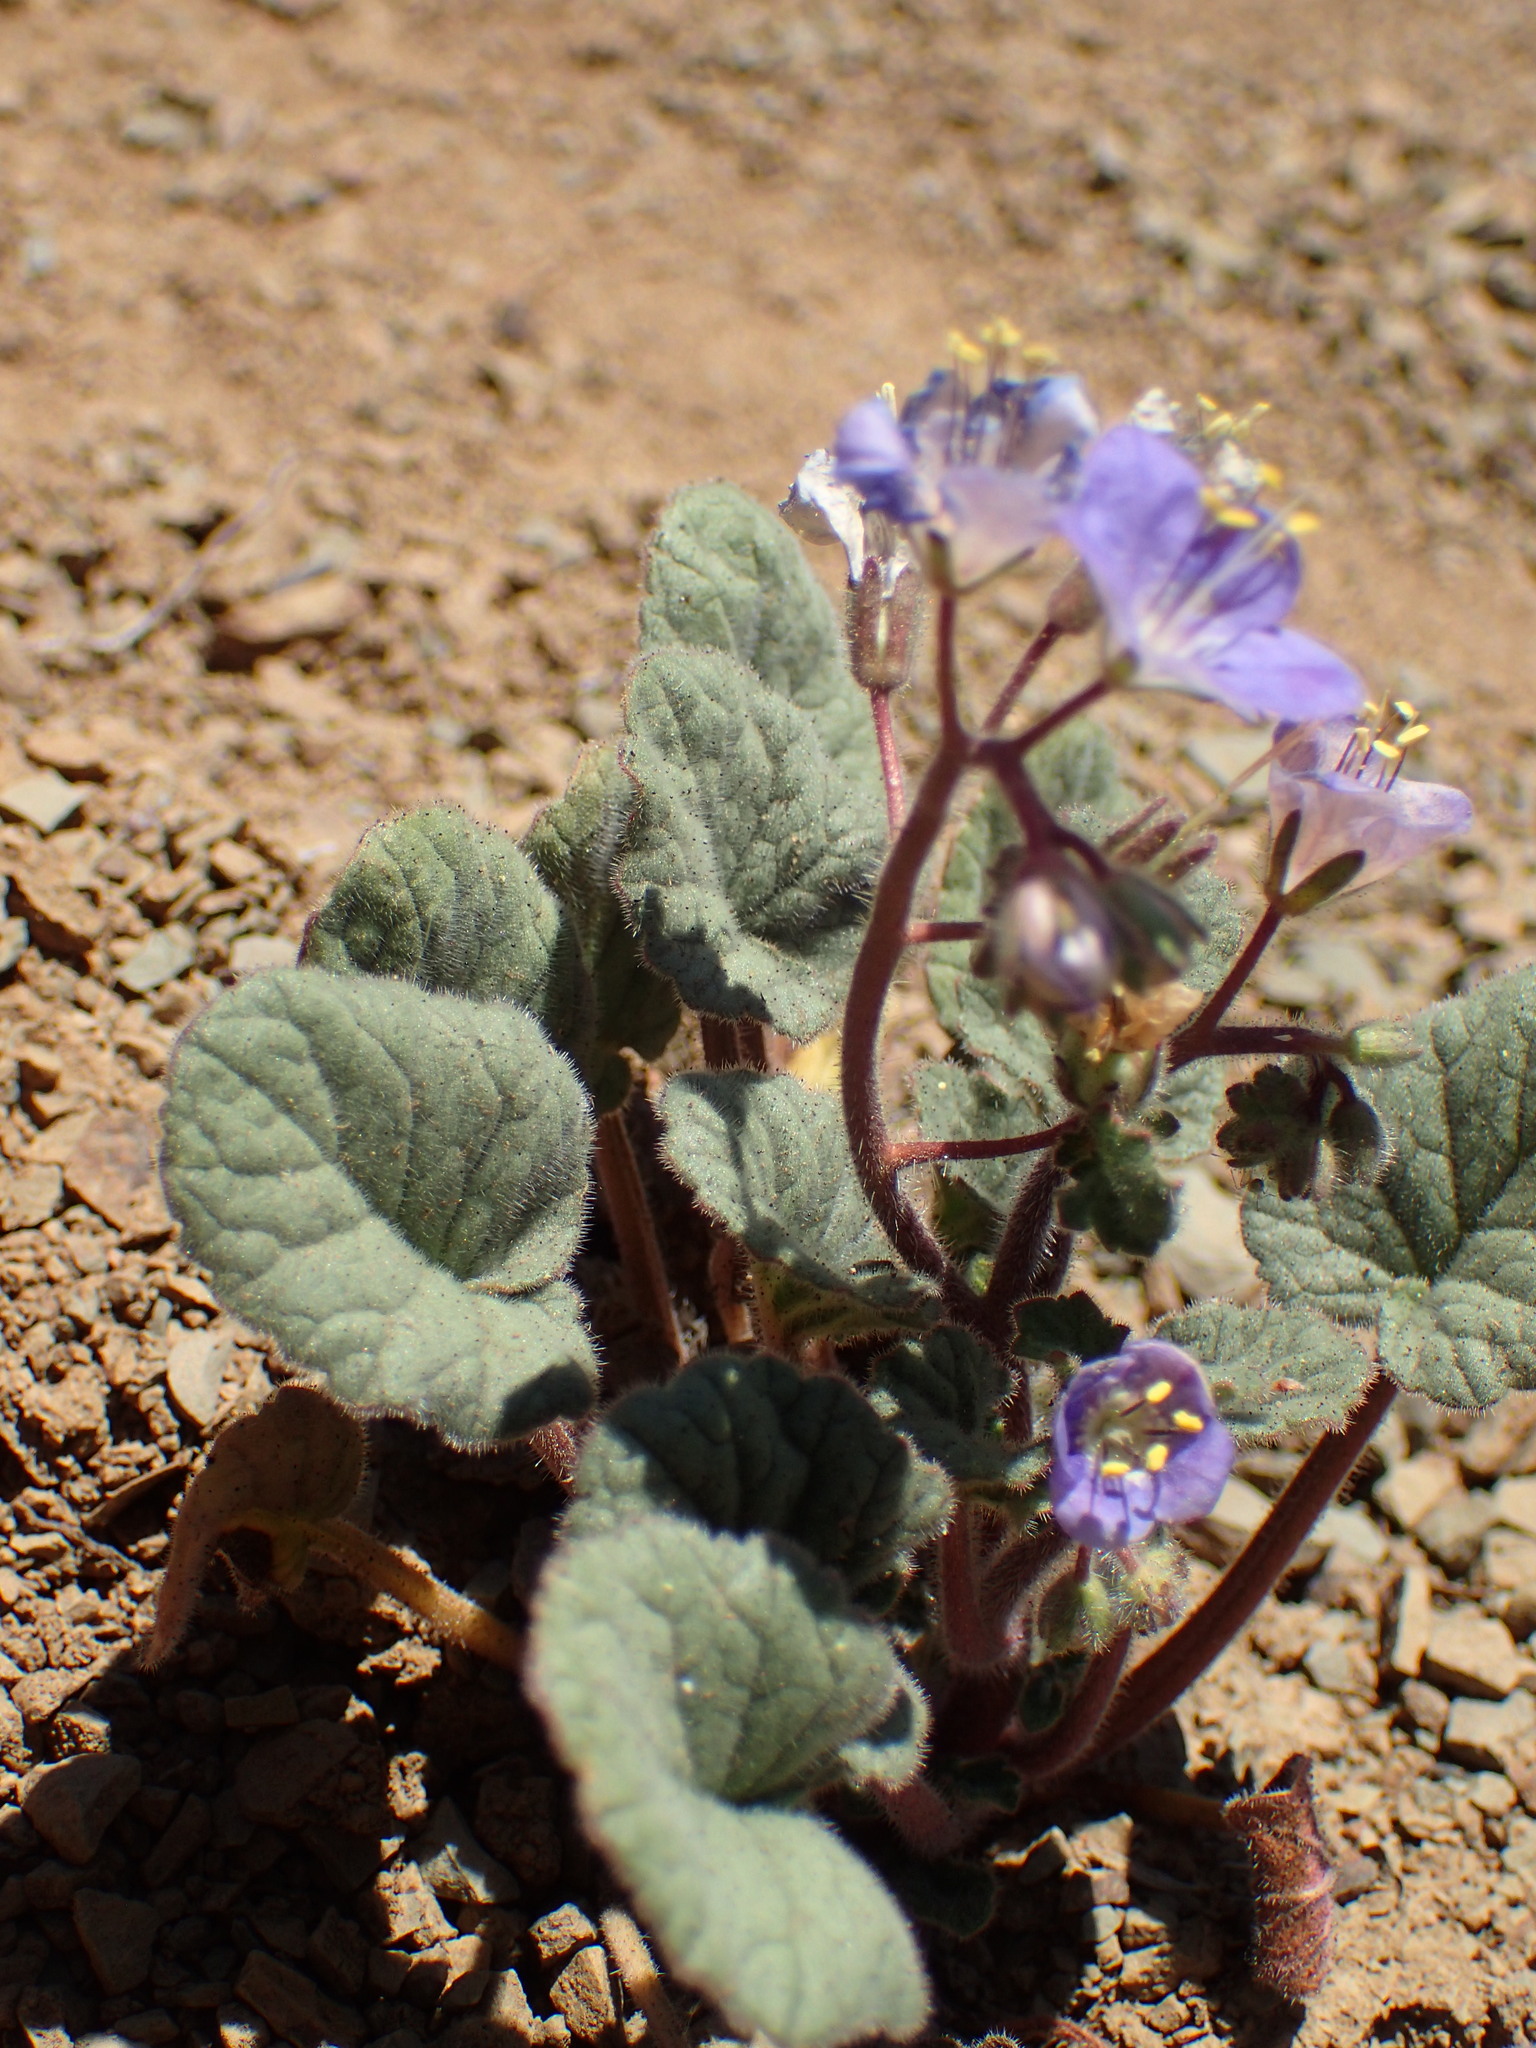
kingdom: Plantae
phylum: Tracheophyta
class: Magnoliopsida
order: Boraginales
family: Hydrophyllaceae
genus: Phacelia
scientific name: Phacelia longipes
